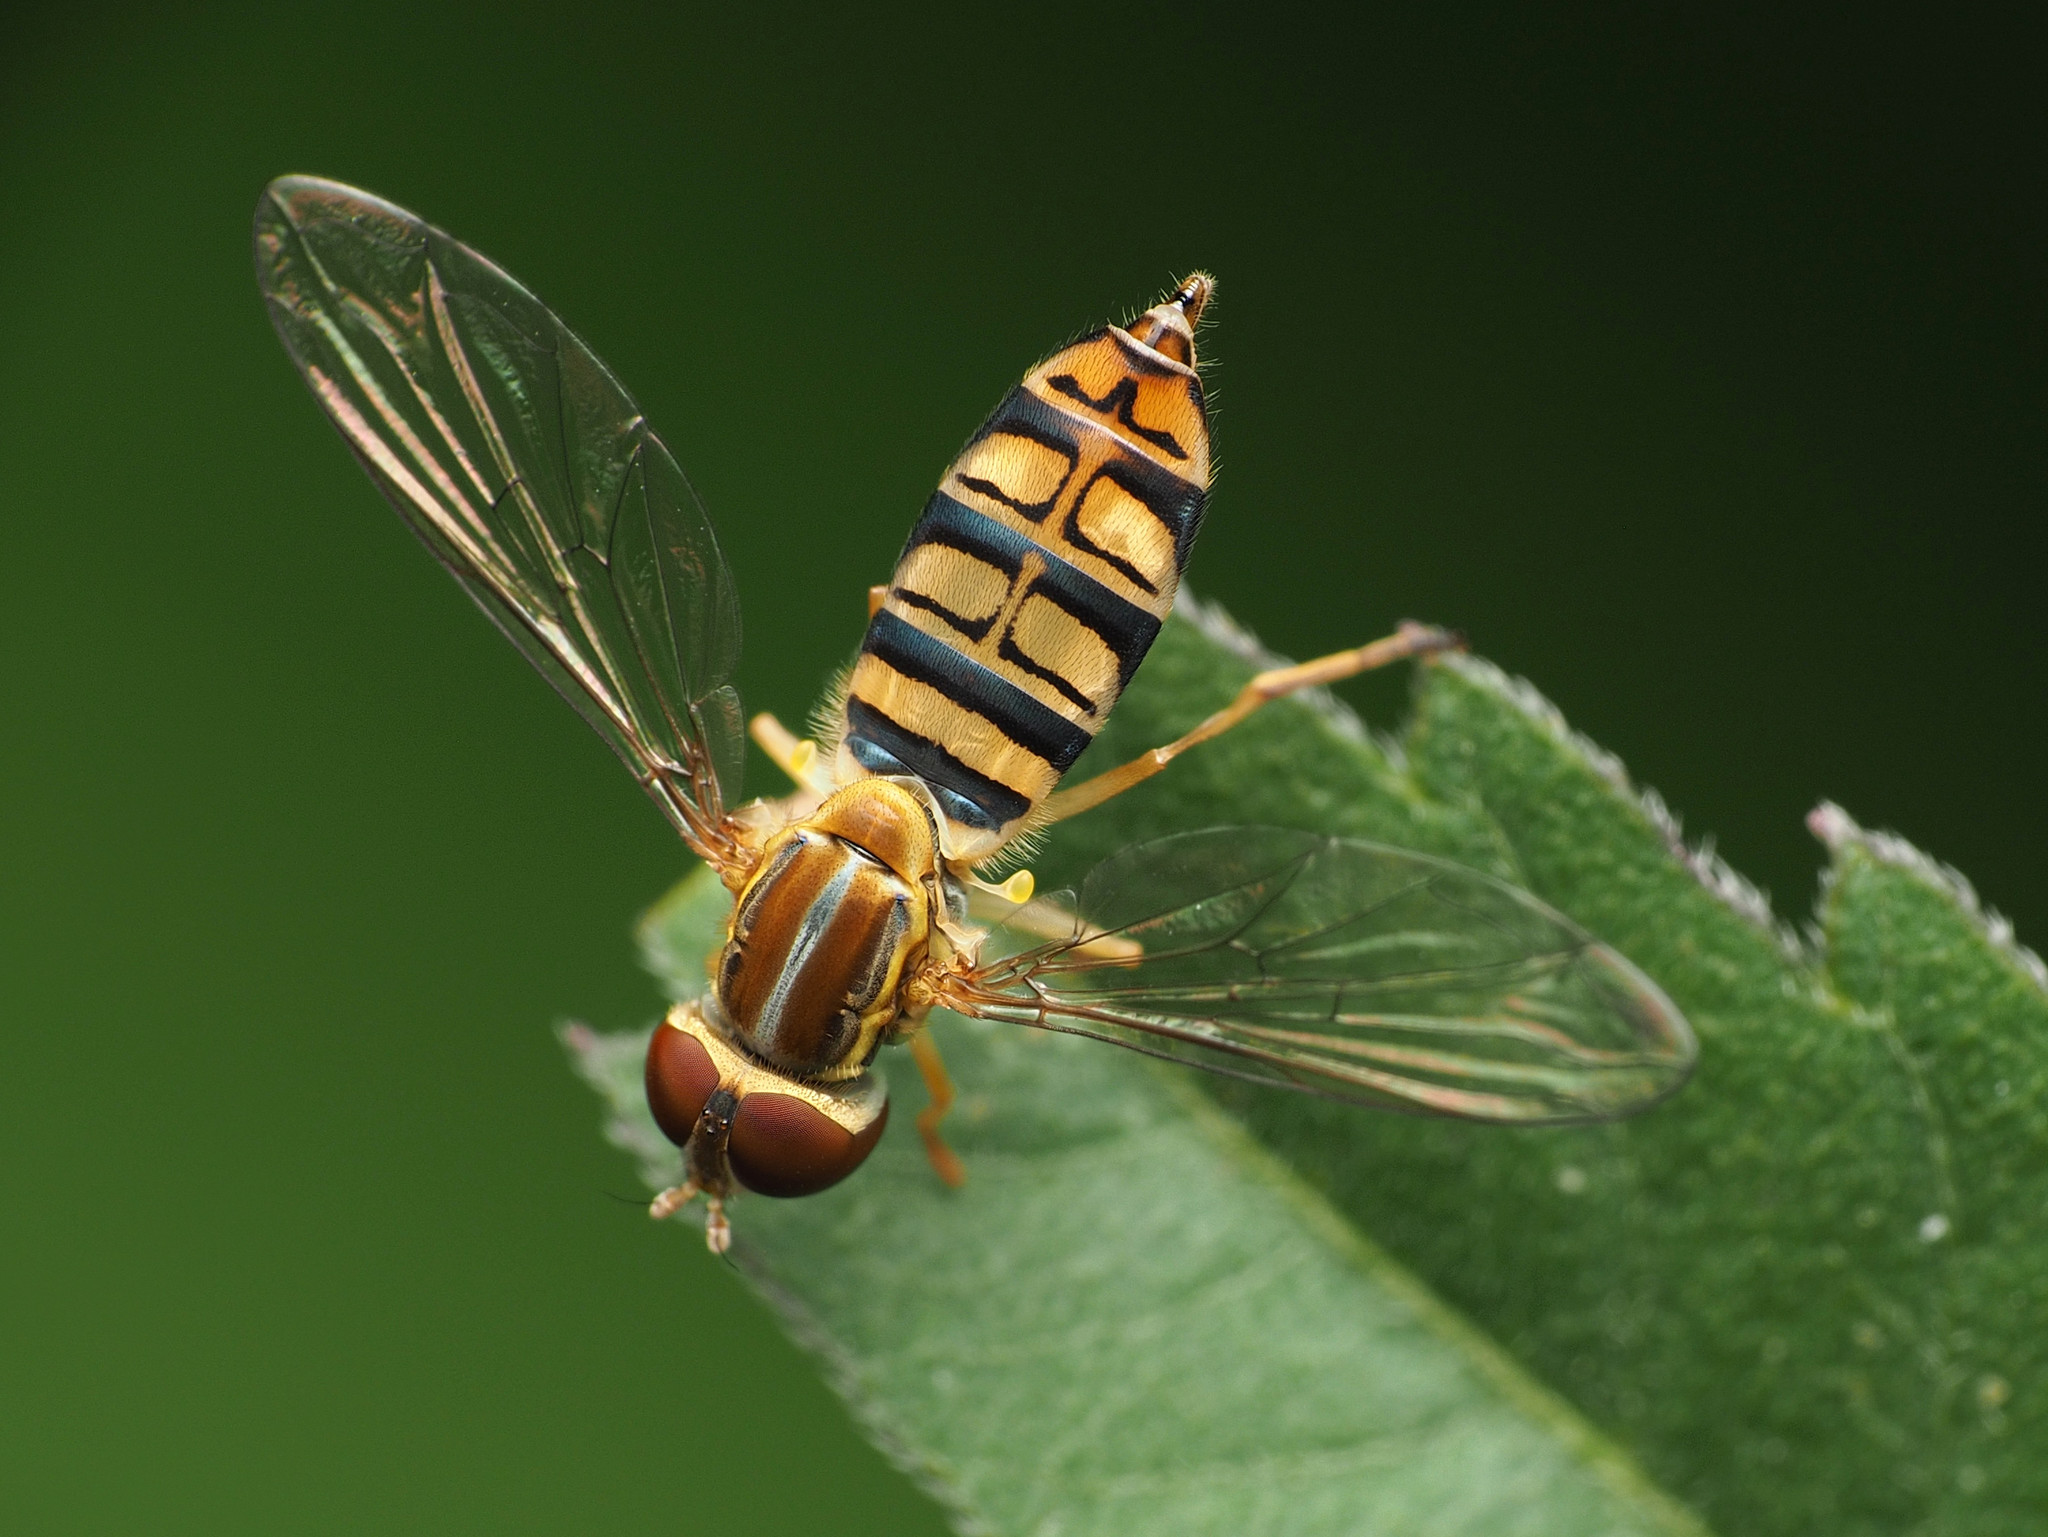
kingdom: Animalia
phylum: Arthropoda
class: Insecta
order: Diptera
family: Syrphidae
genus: Toxomerus
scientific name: Toxomerus politus
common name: Maize calligrapher
